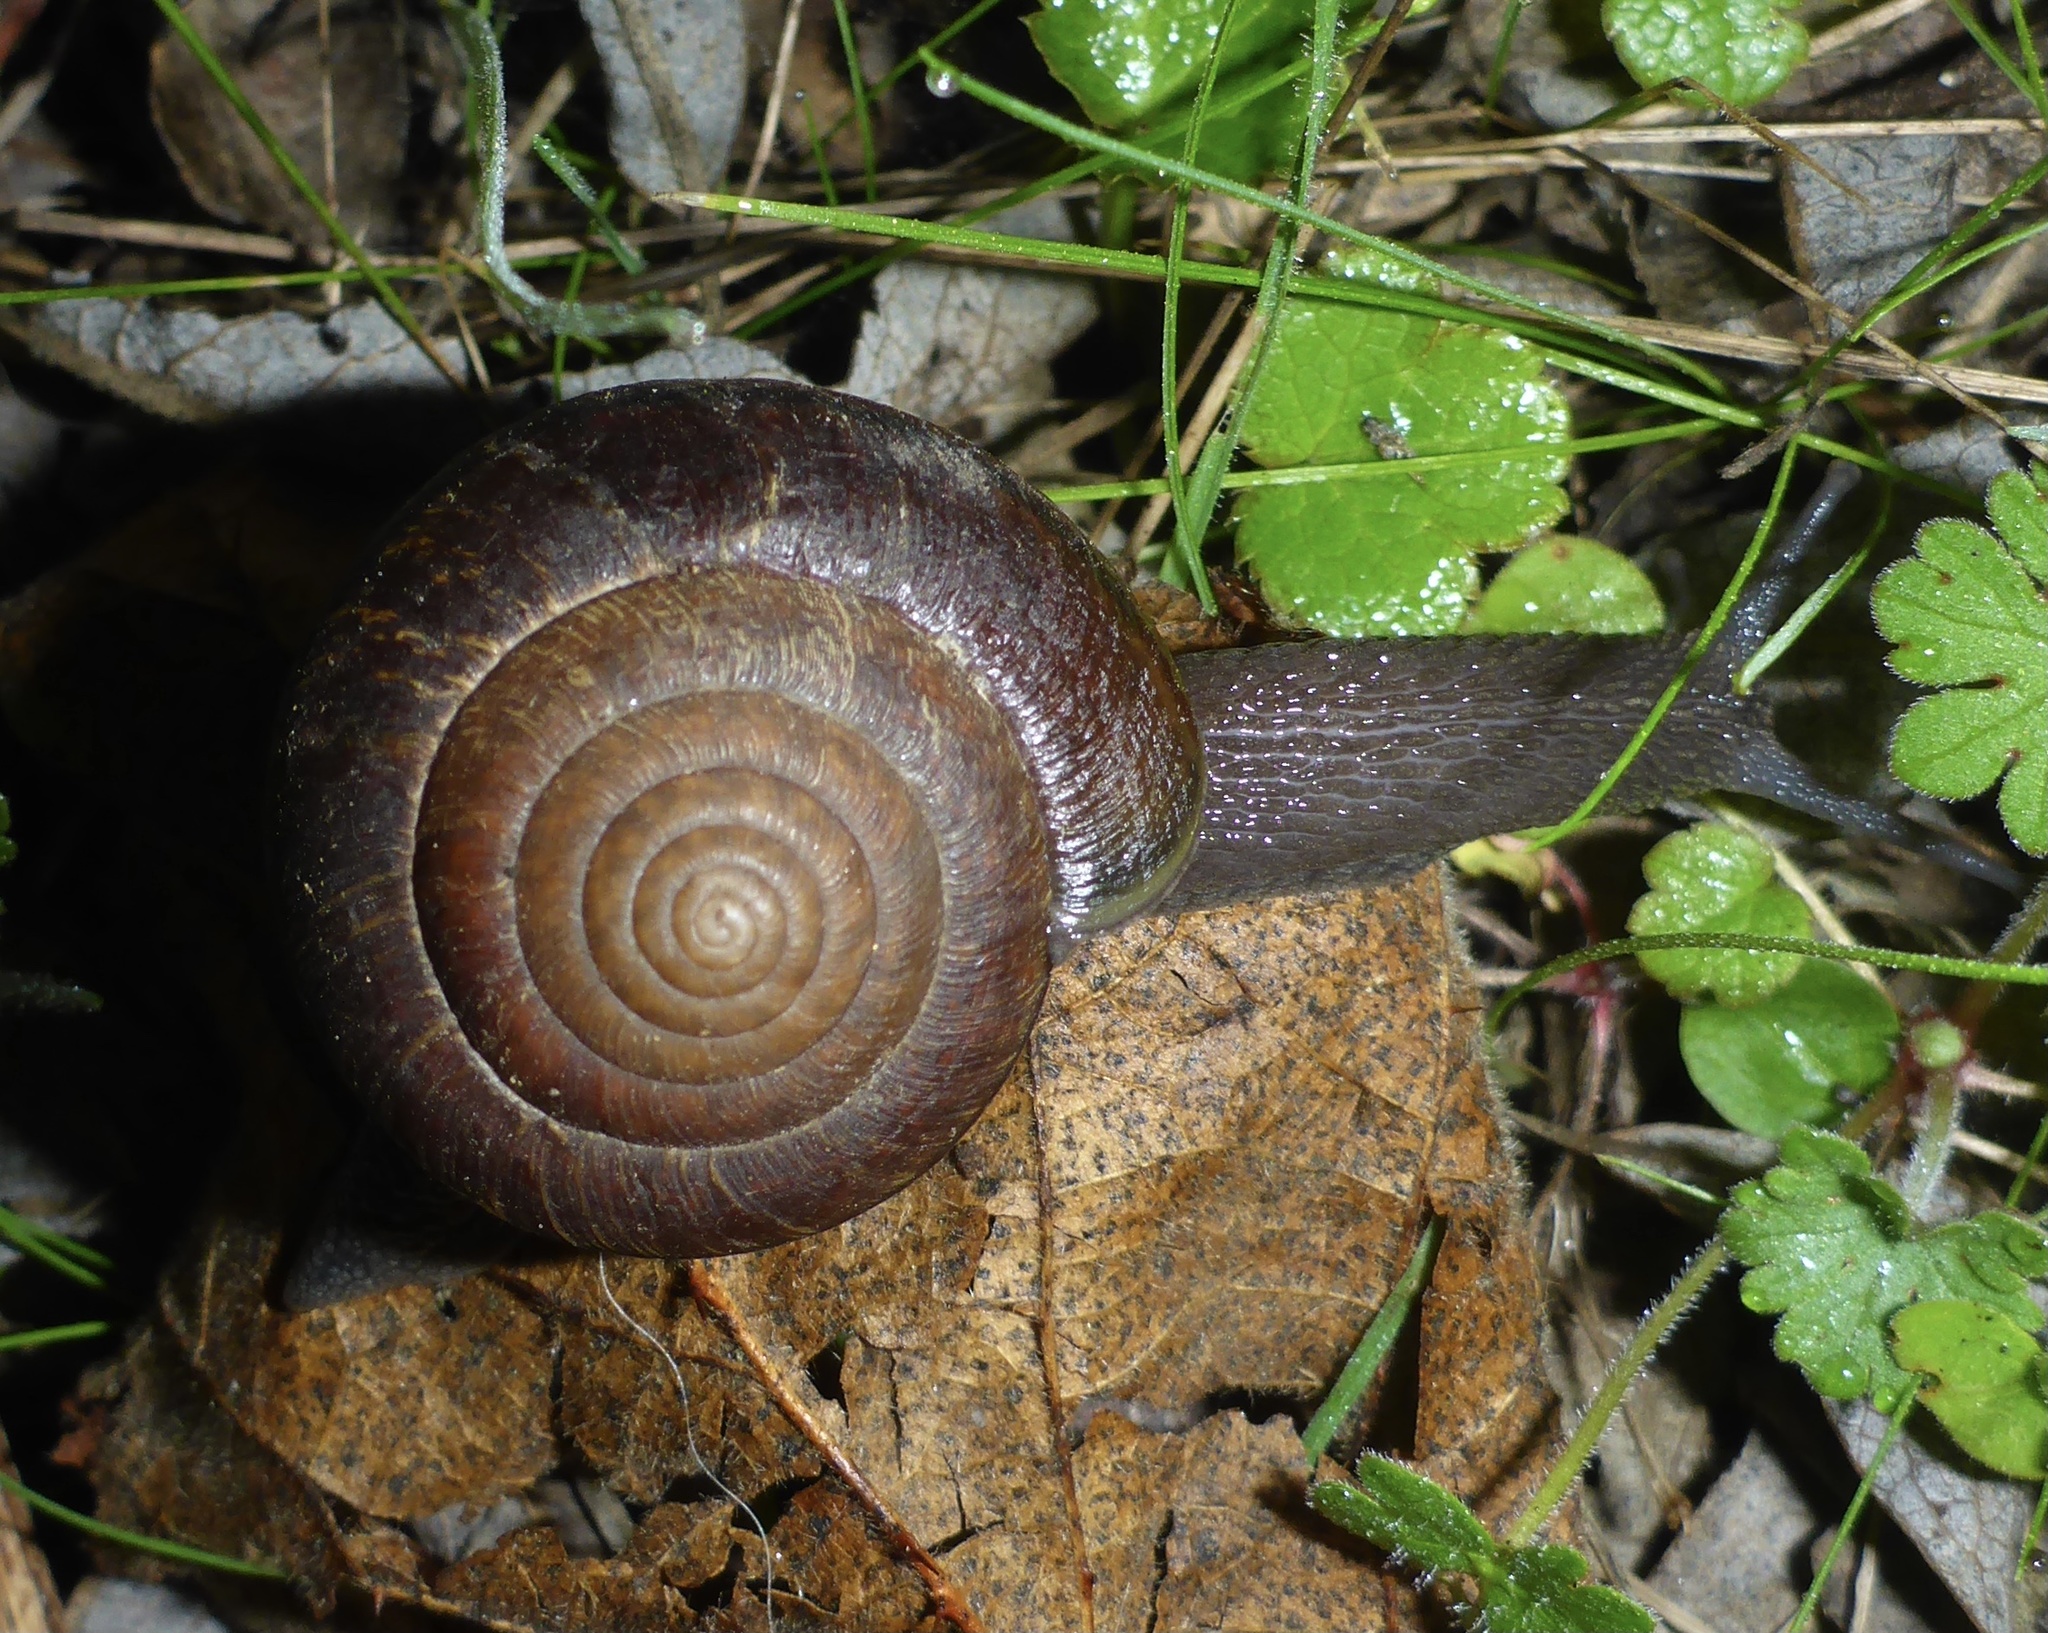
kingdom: Animalia
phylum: Mollusca
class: Gastropoda
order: Stylommatophora
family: Xanthonychidae
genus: Helminthoglypta
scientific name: Helminthoglypta arrosa
